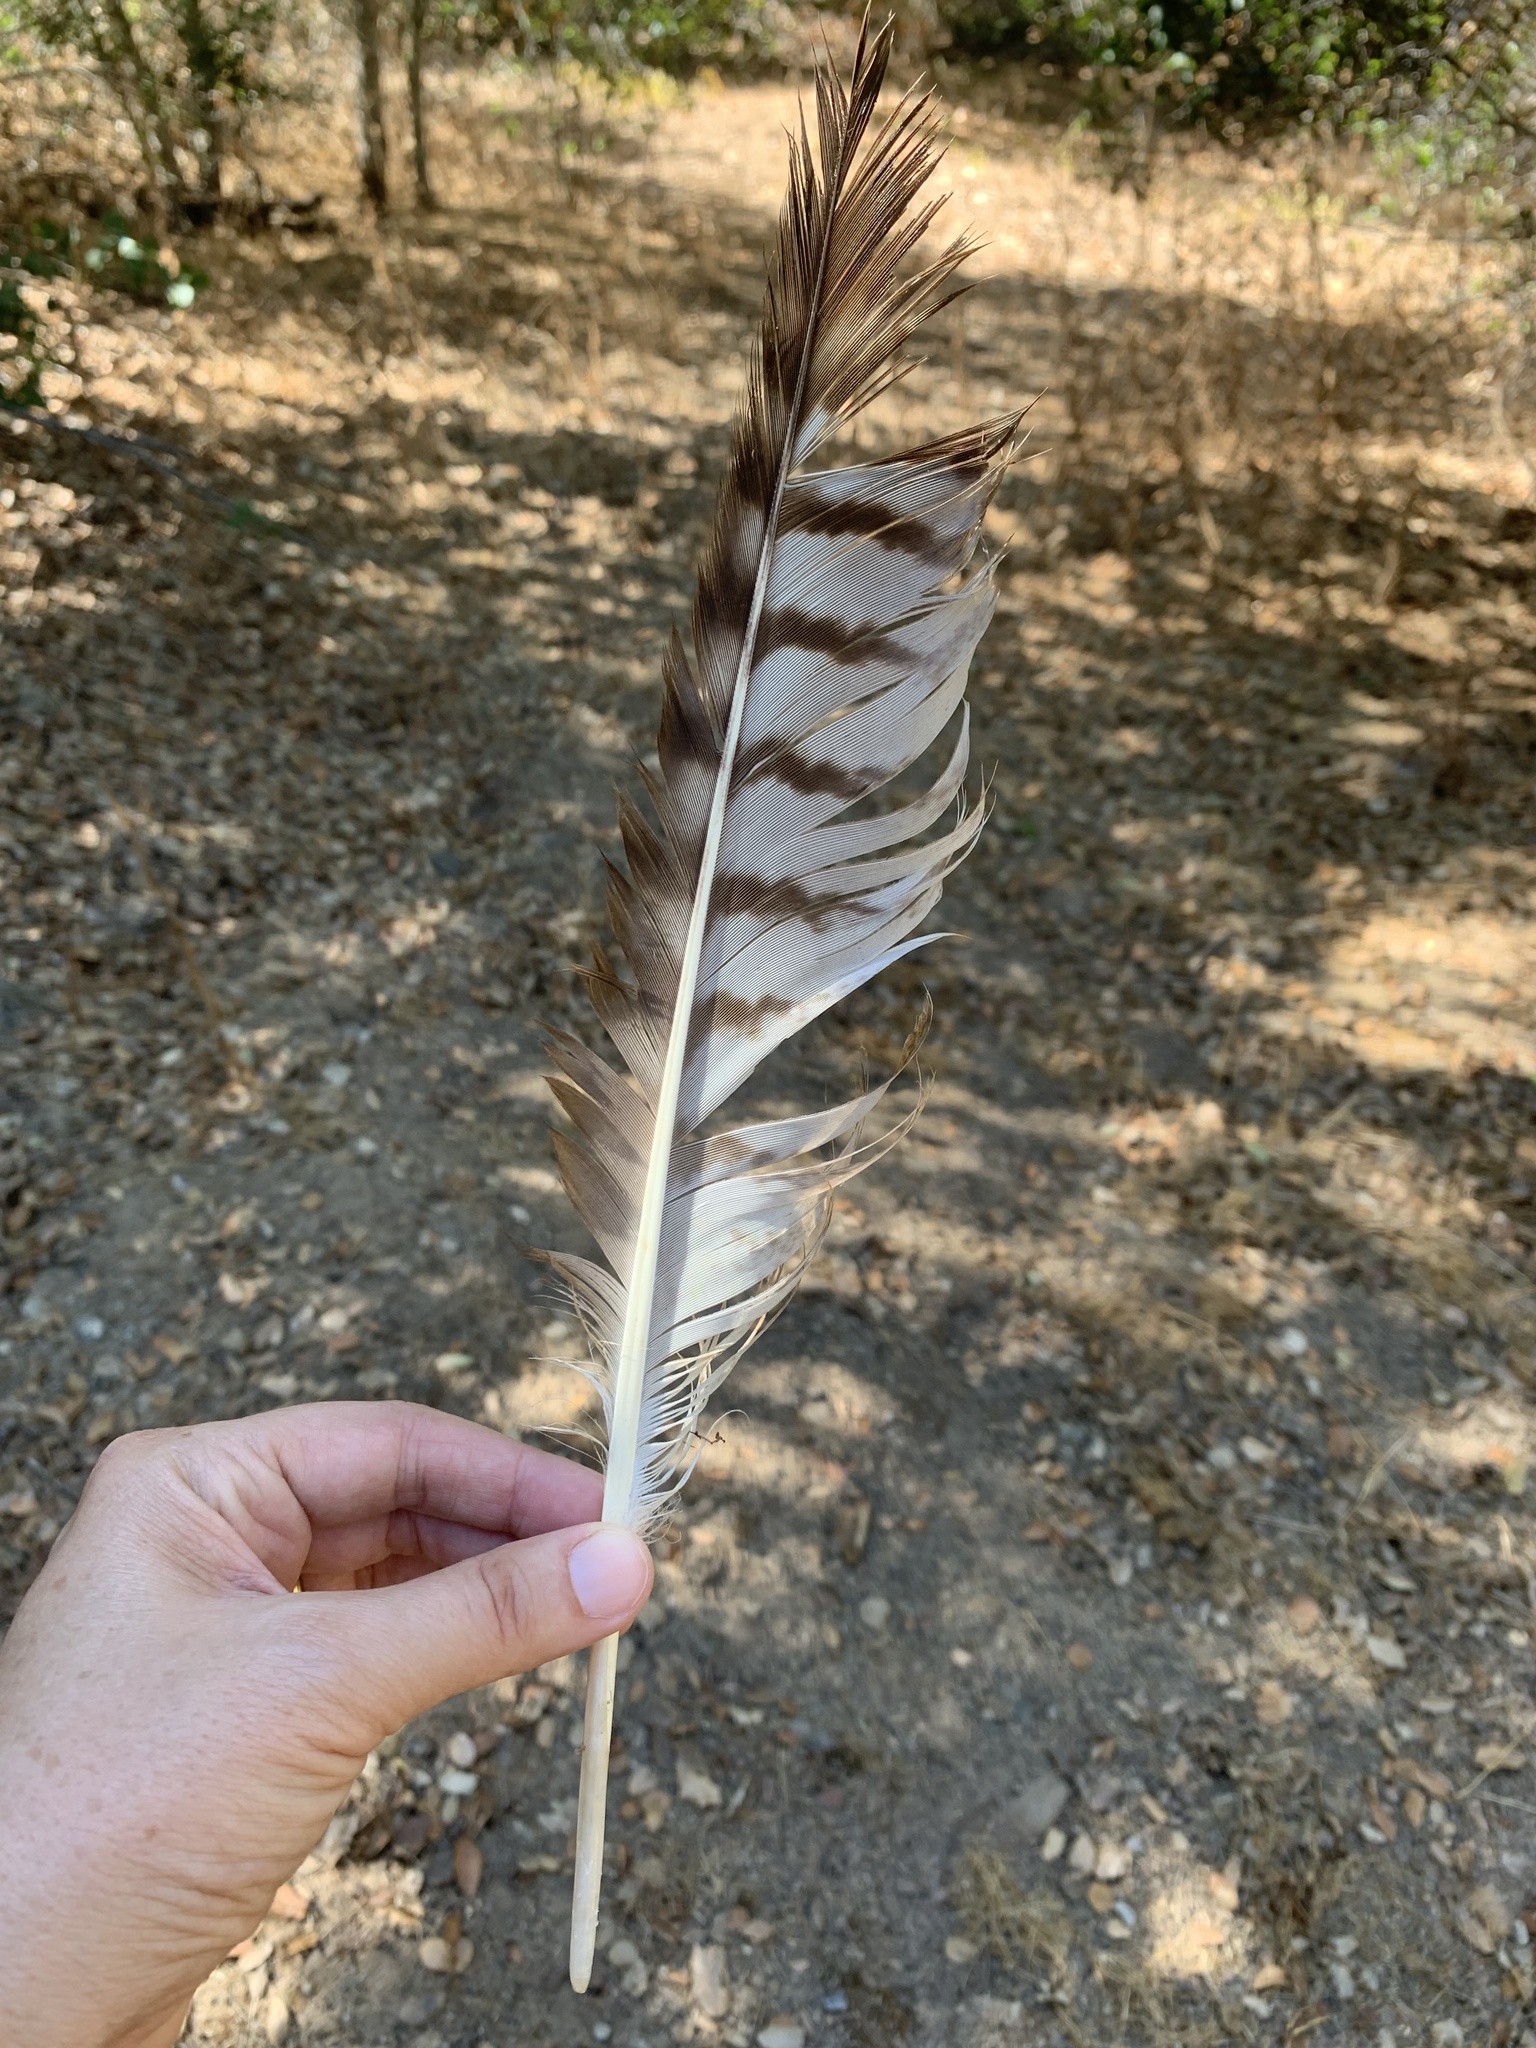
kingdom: Animalia
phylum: Chordata
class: Aves
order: Accipitriformes
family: Accipitridae
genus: Buteo
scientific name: Buteo jamaicensis
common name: Red-tailed hawk
